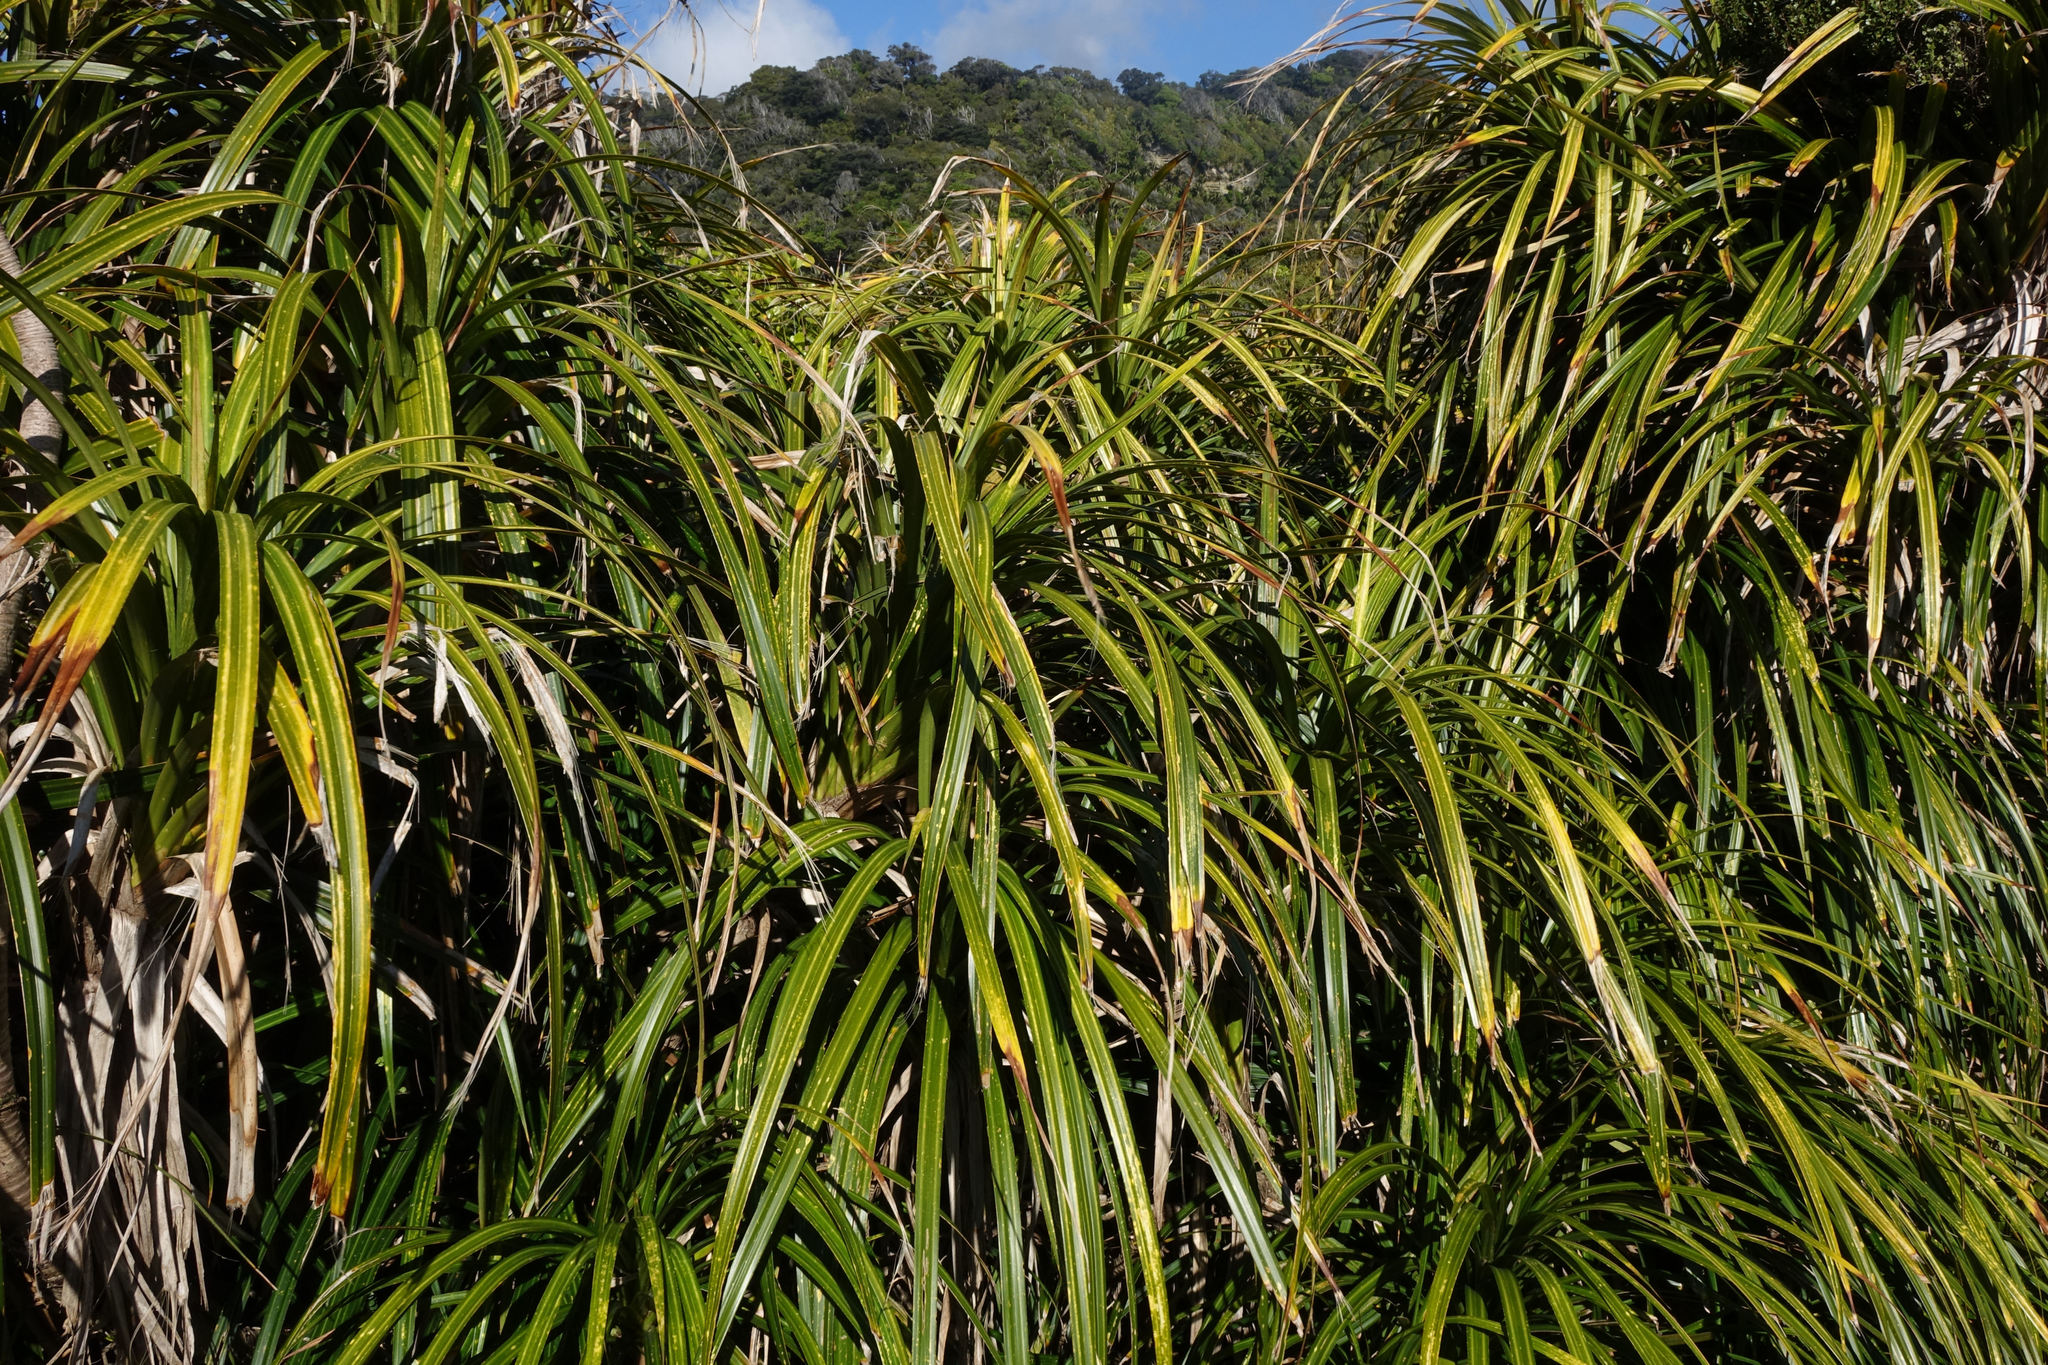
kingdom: Plantae
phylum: Tracheophyta
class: Liliopsida
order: Pandanales
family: Pandanaceae
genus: Freycinetia
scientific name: Freycinetia banksii
